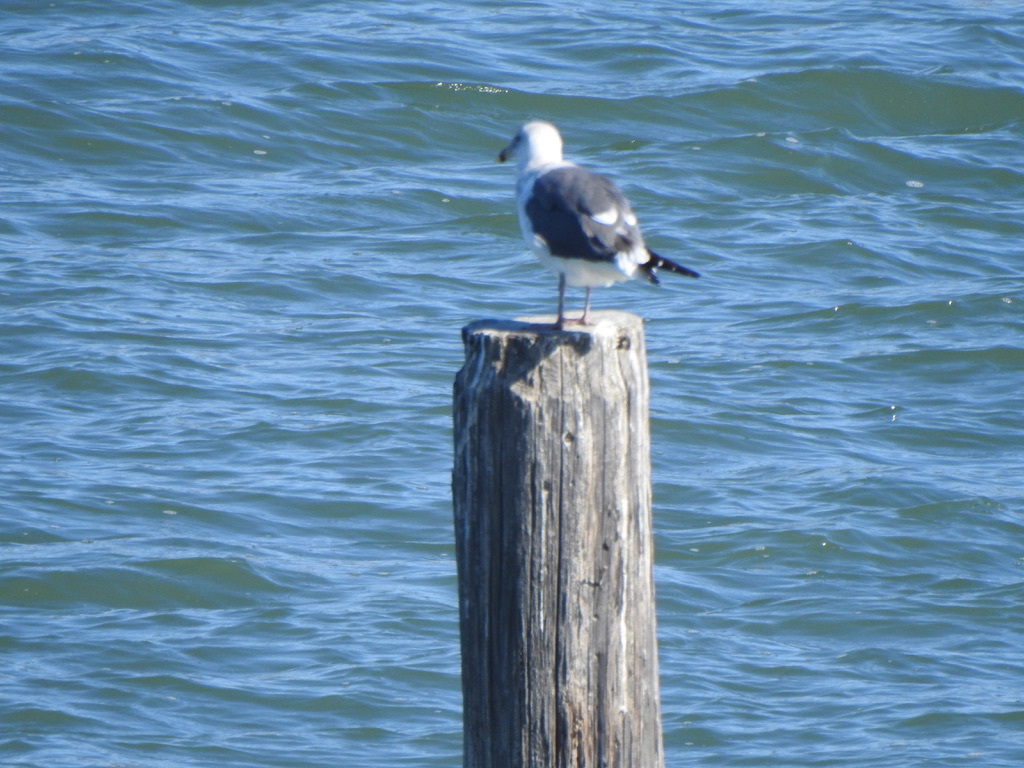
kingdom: Animalia
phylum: Chordata
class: Aves
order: Charadriiformes
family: Laridae
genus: Larus
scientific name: Larus occidentalis
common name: Western gull
